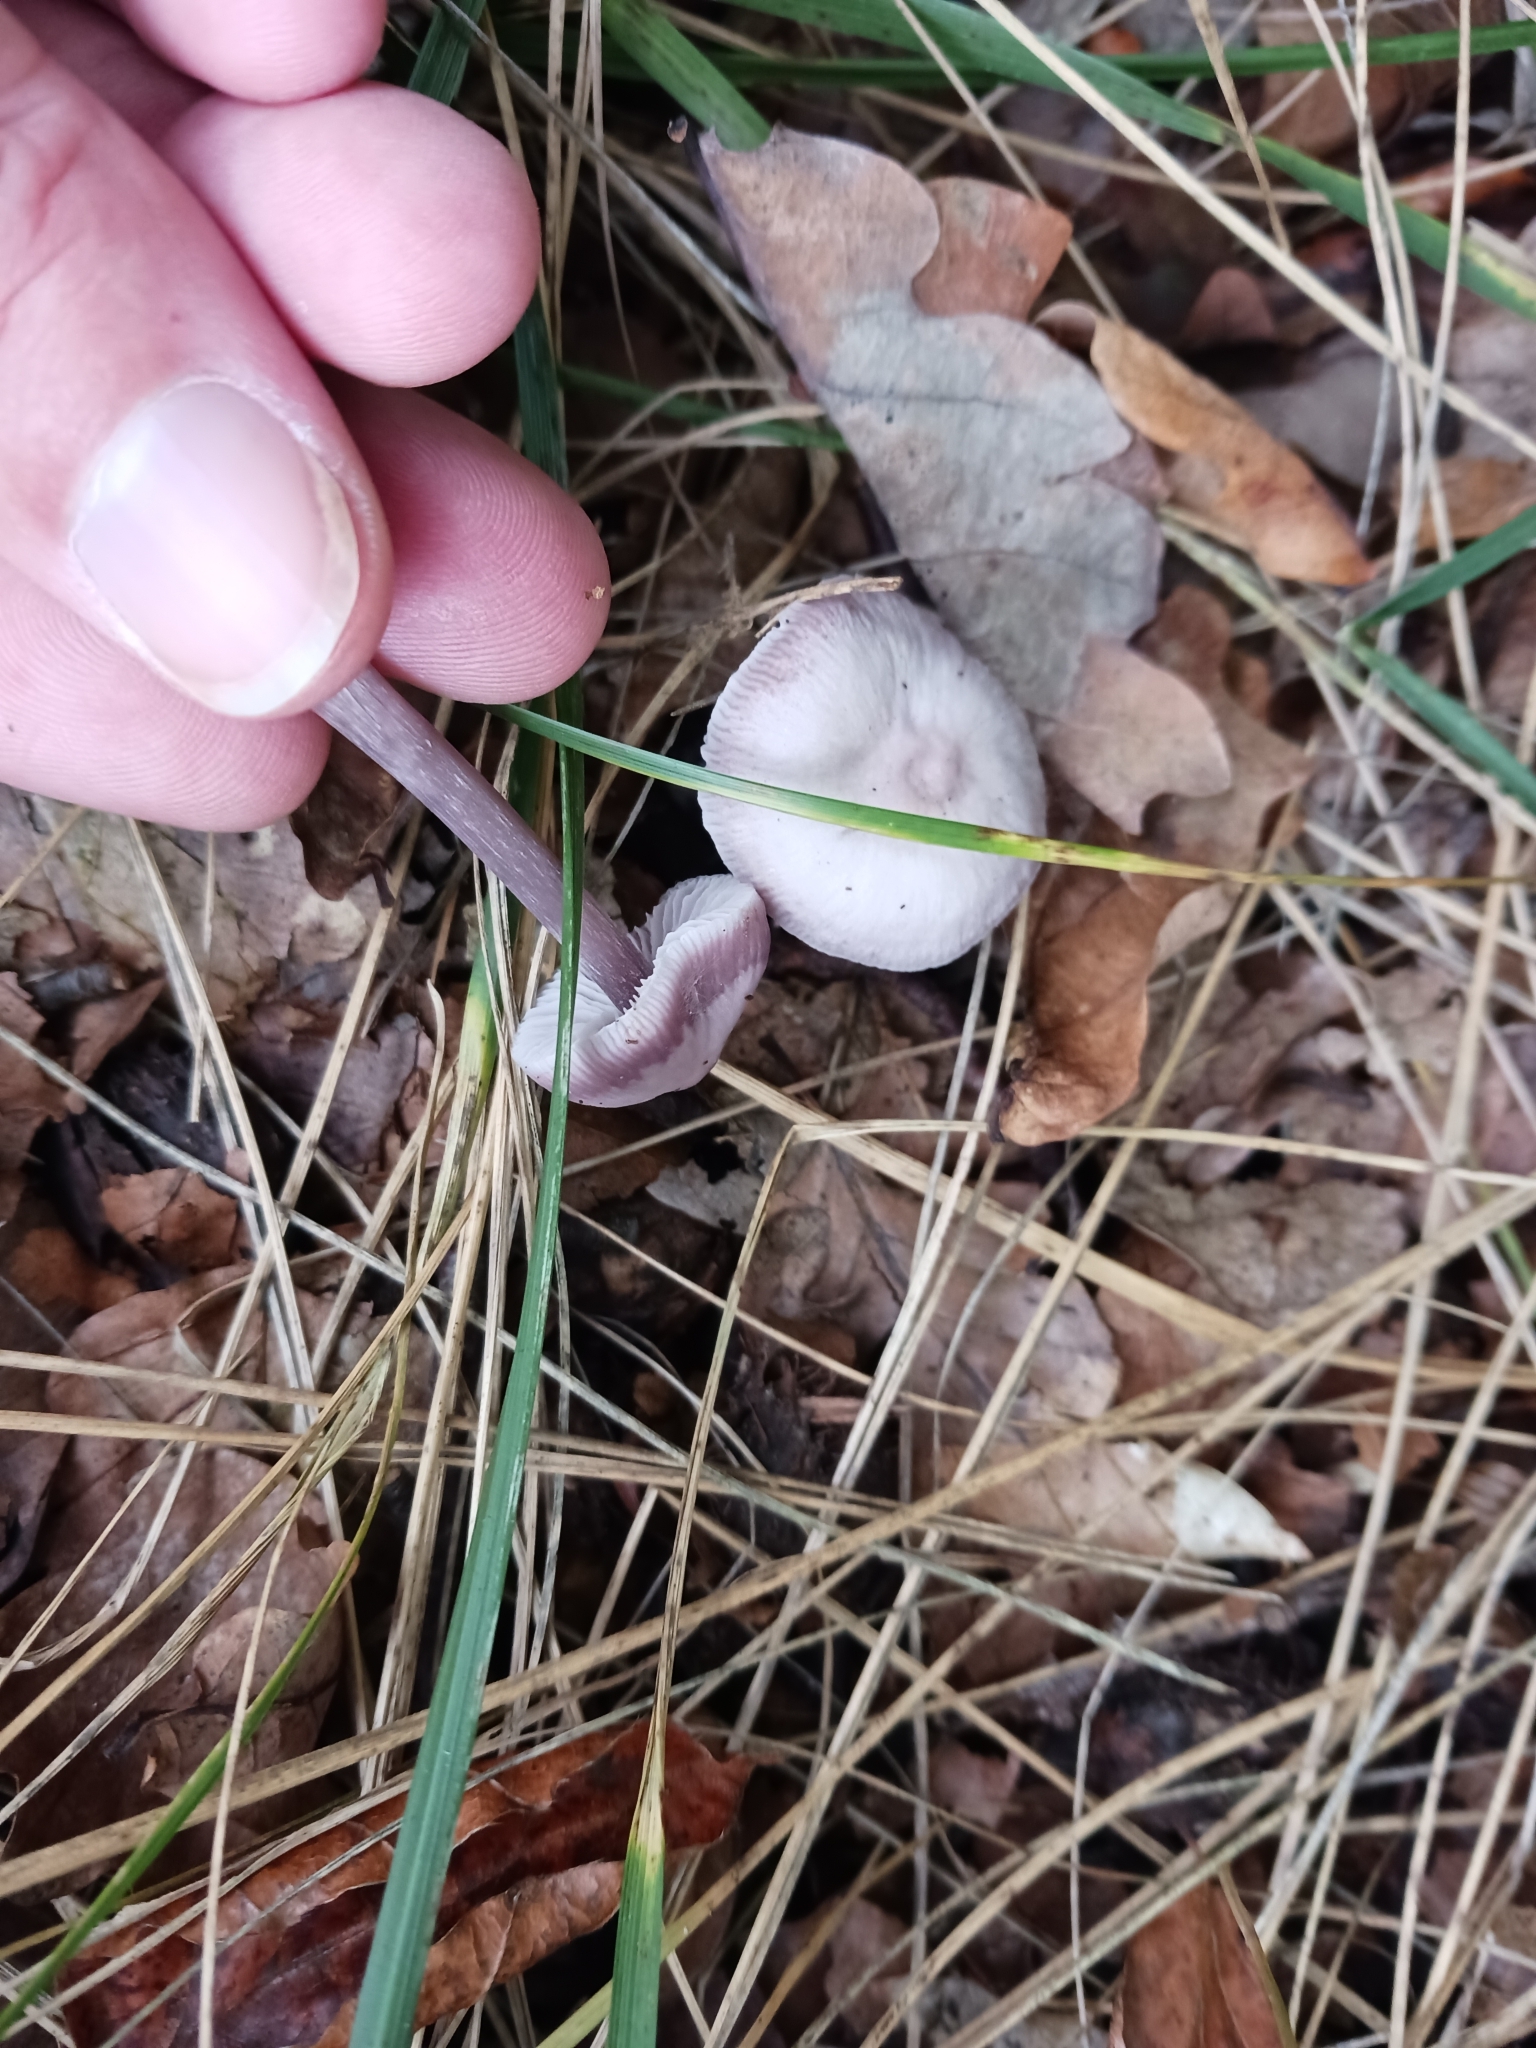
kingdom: Fungi
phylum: Basidiomycota
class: Agaricomycetes
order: Agaricales
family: Mycenaceae
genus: Mycena
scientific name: Mycena pura
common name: Lilac bonnet
